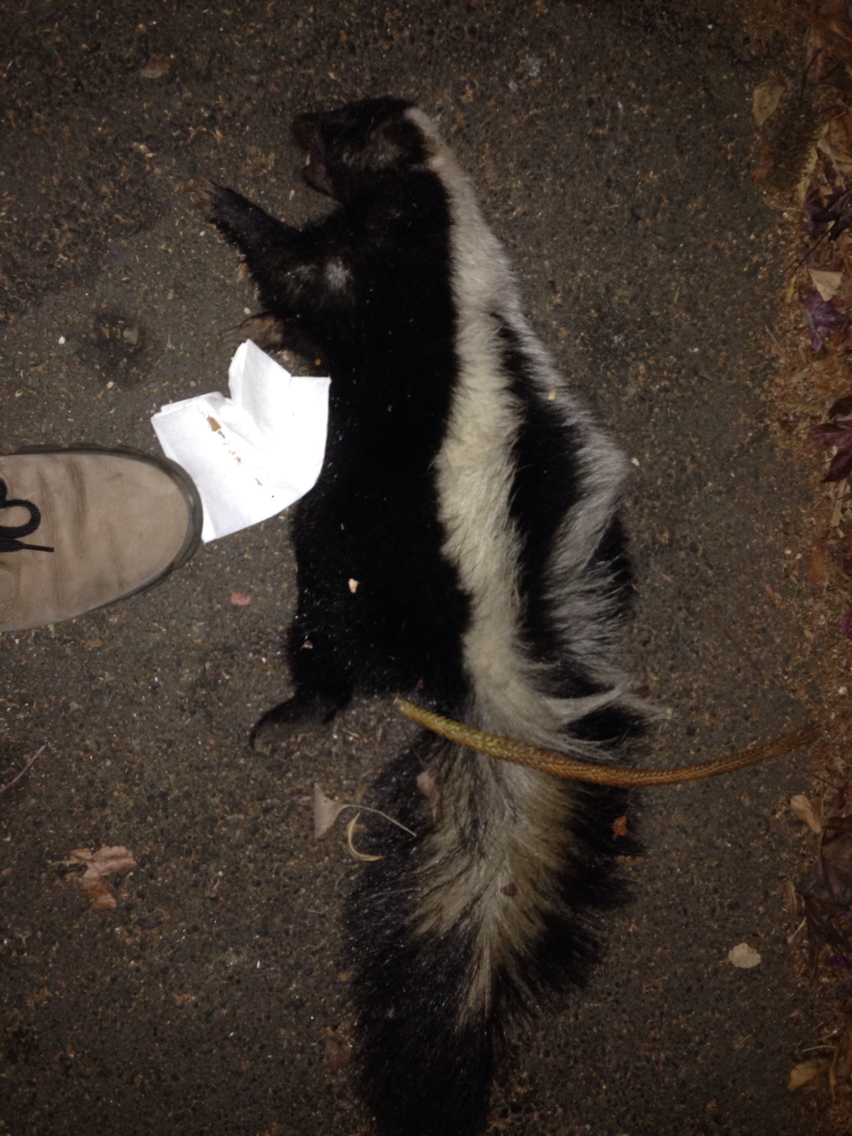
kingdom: Animalia
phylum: Chordata
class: Mammalia
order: Carnivora
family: Mephitidae
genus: Mephitis
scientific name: Mephitis mephitis
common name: Striped skunk
